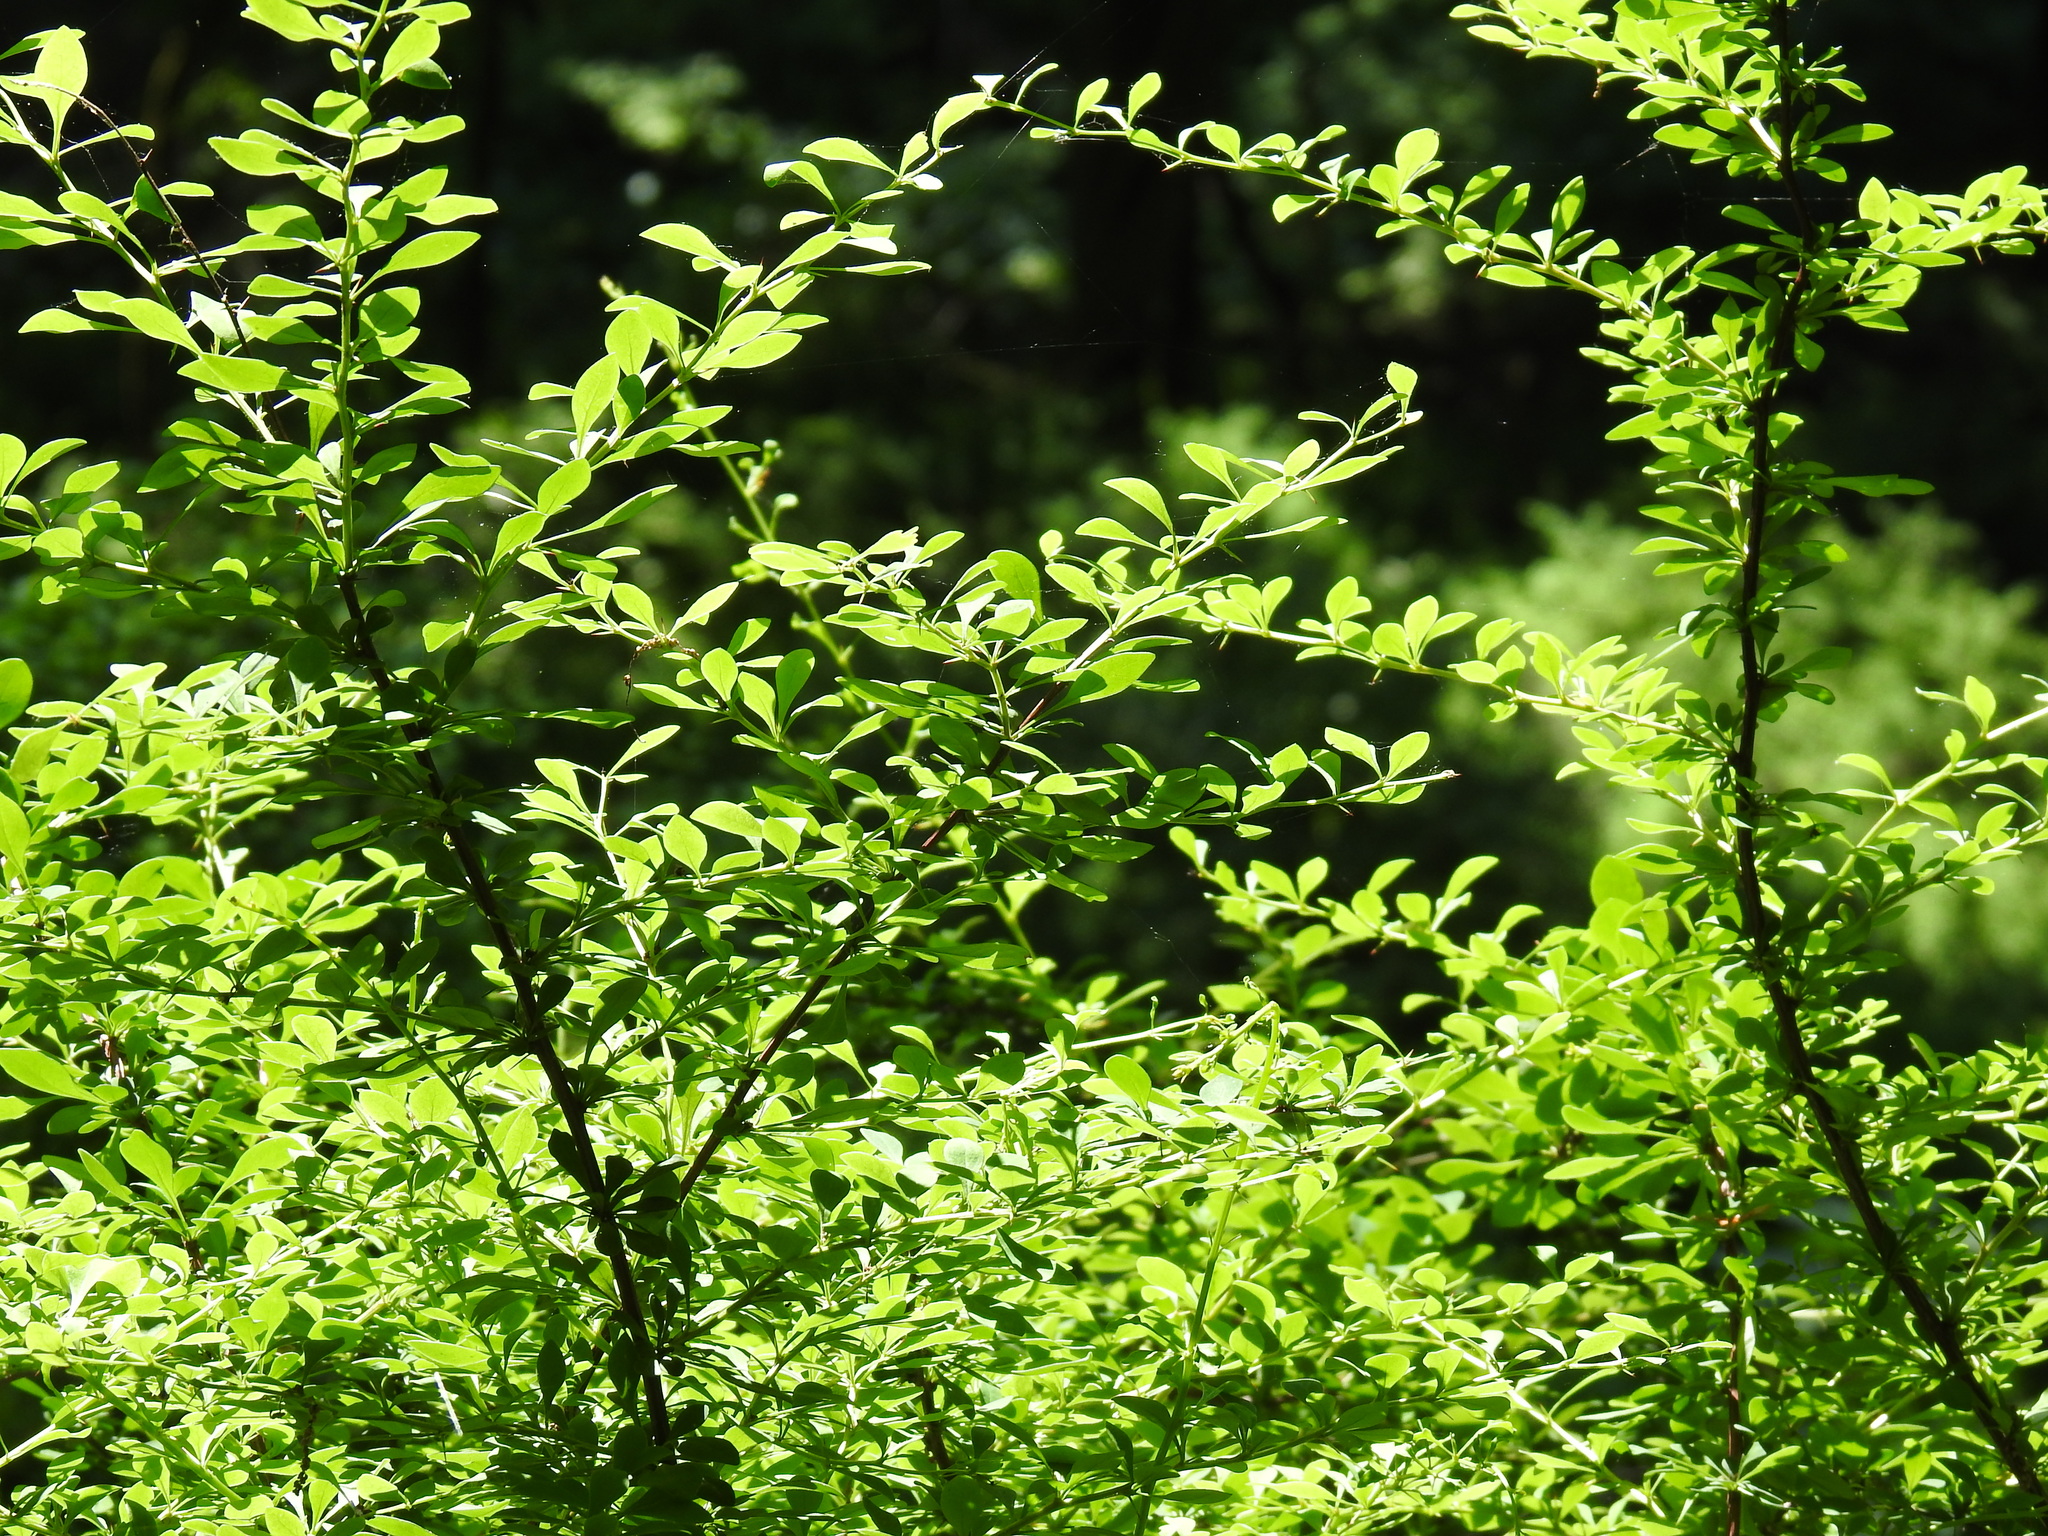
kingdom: Plantae
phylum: Tracheophyta
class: Magnoliopsida
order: Ranunculales
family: Berberidaceae
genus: Berberis
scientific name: Berberis thunbergii
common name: Japanese barberry
